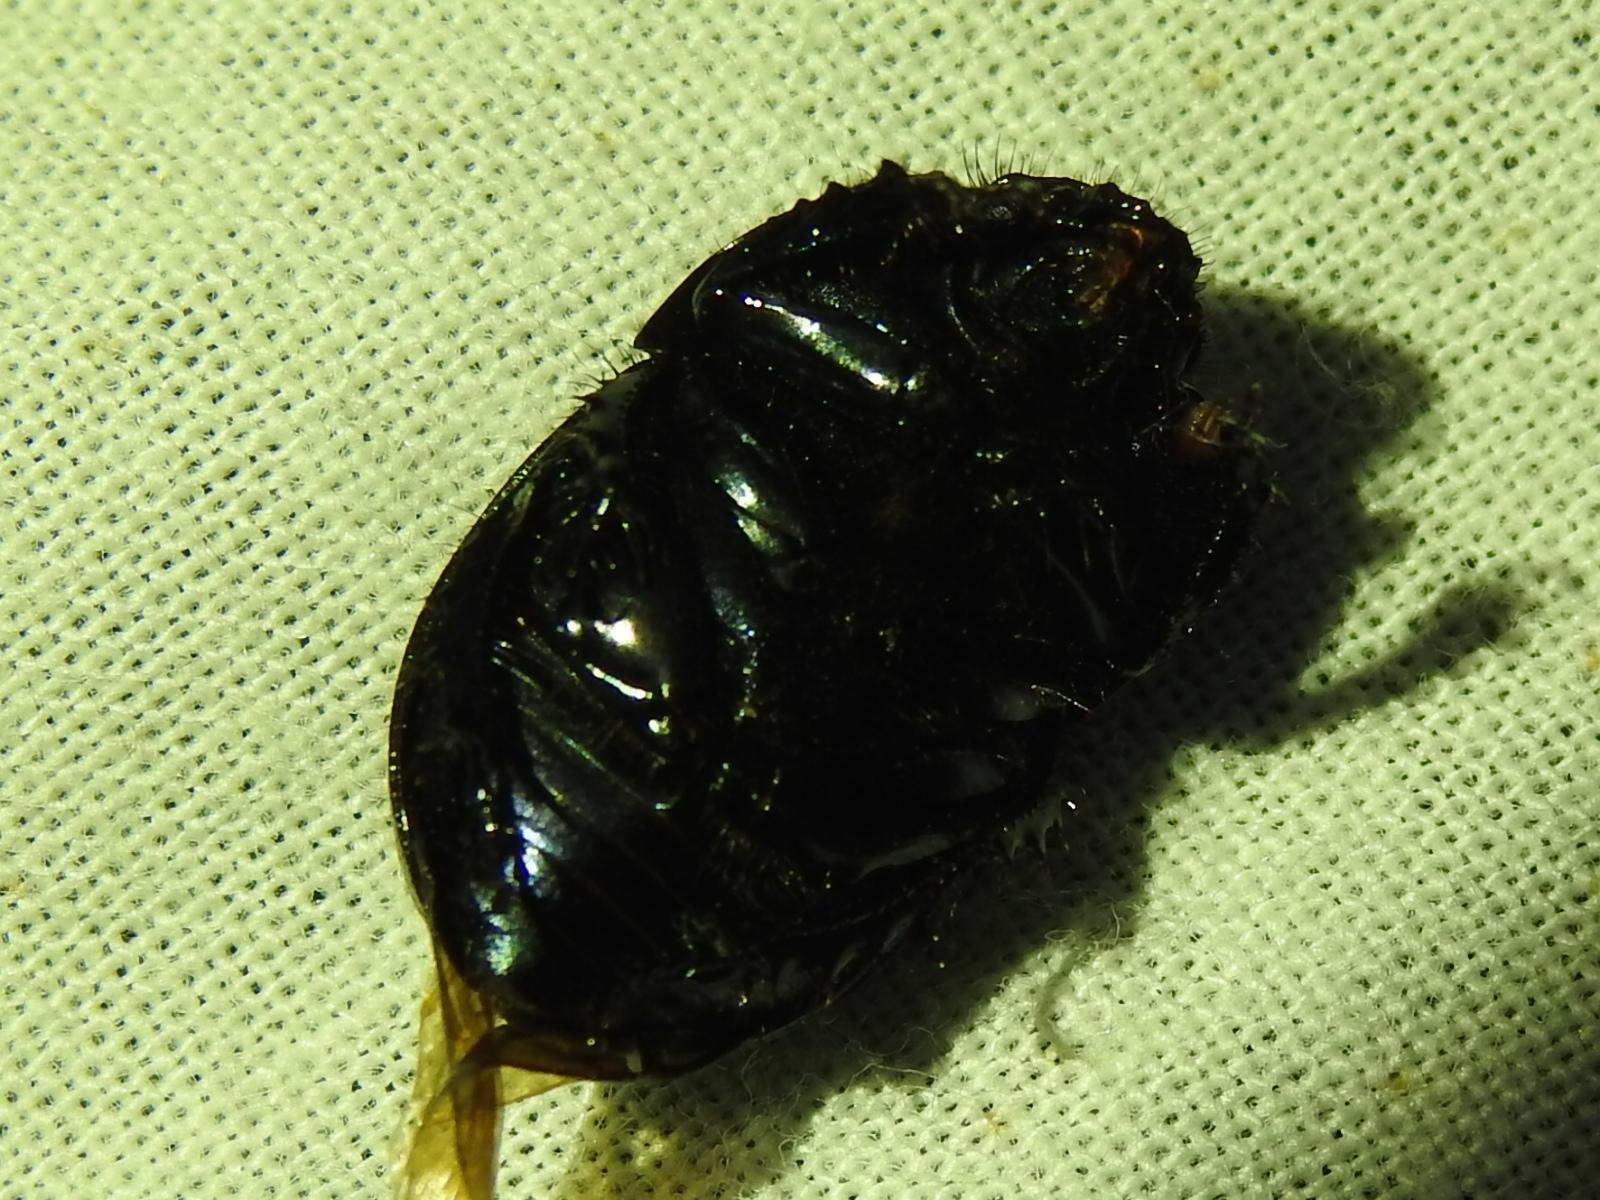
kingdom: Animalia
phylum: Arthropoda
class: Insecta
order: Coleoptera
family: Geotrupidae
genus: Cnemotrupes
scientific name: Cnemotrupes semiopacus
